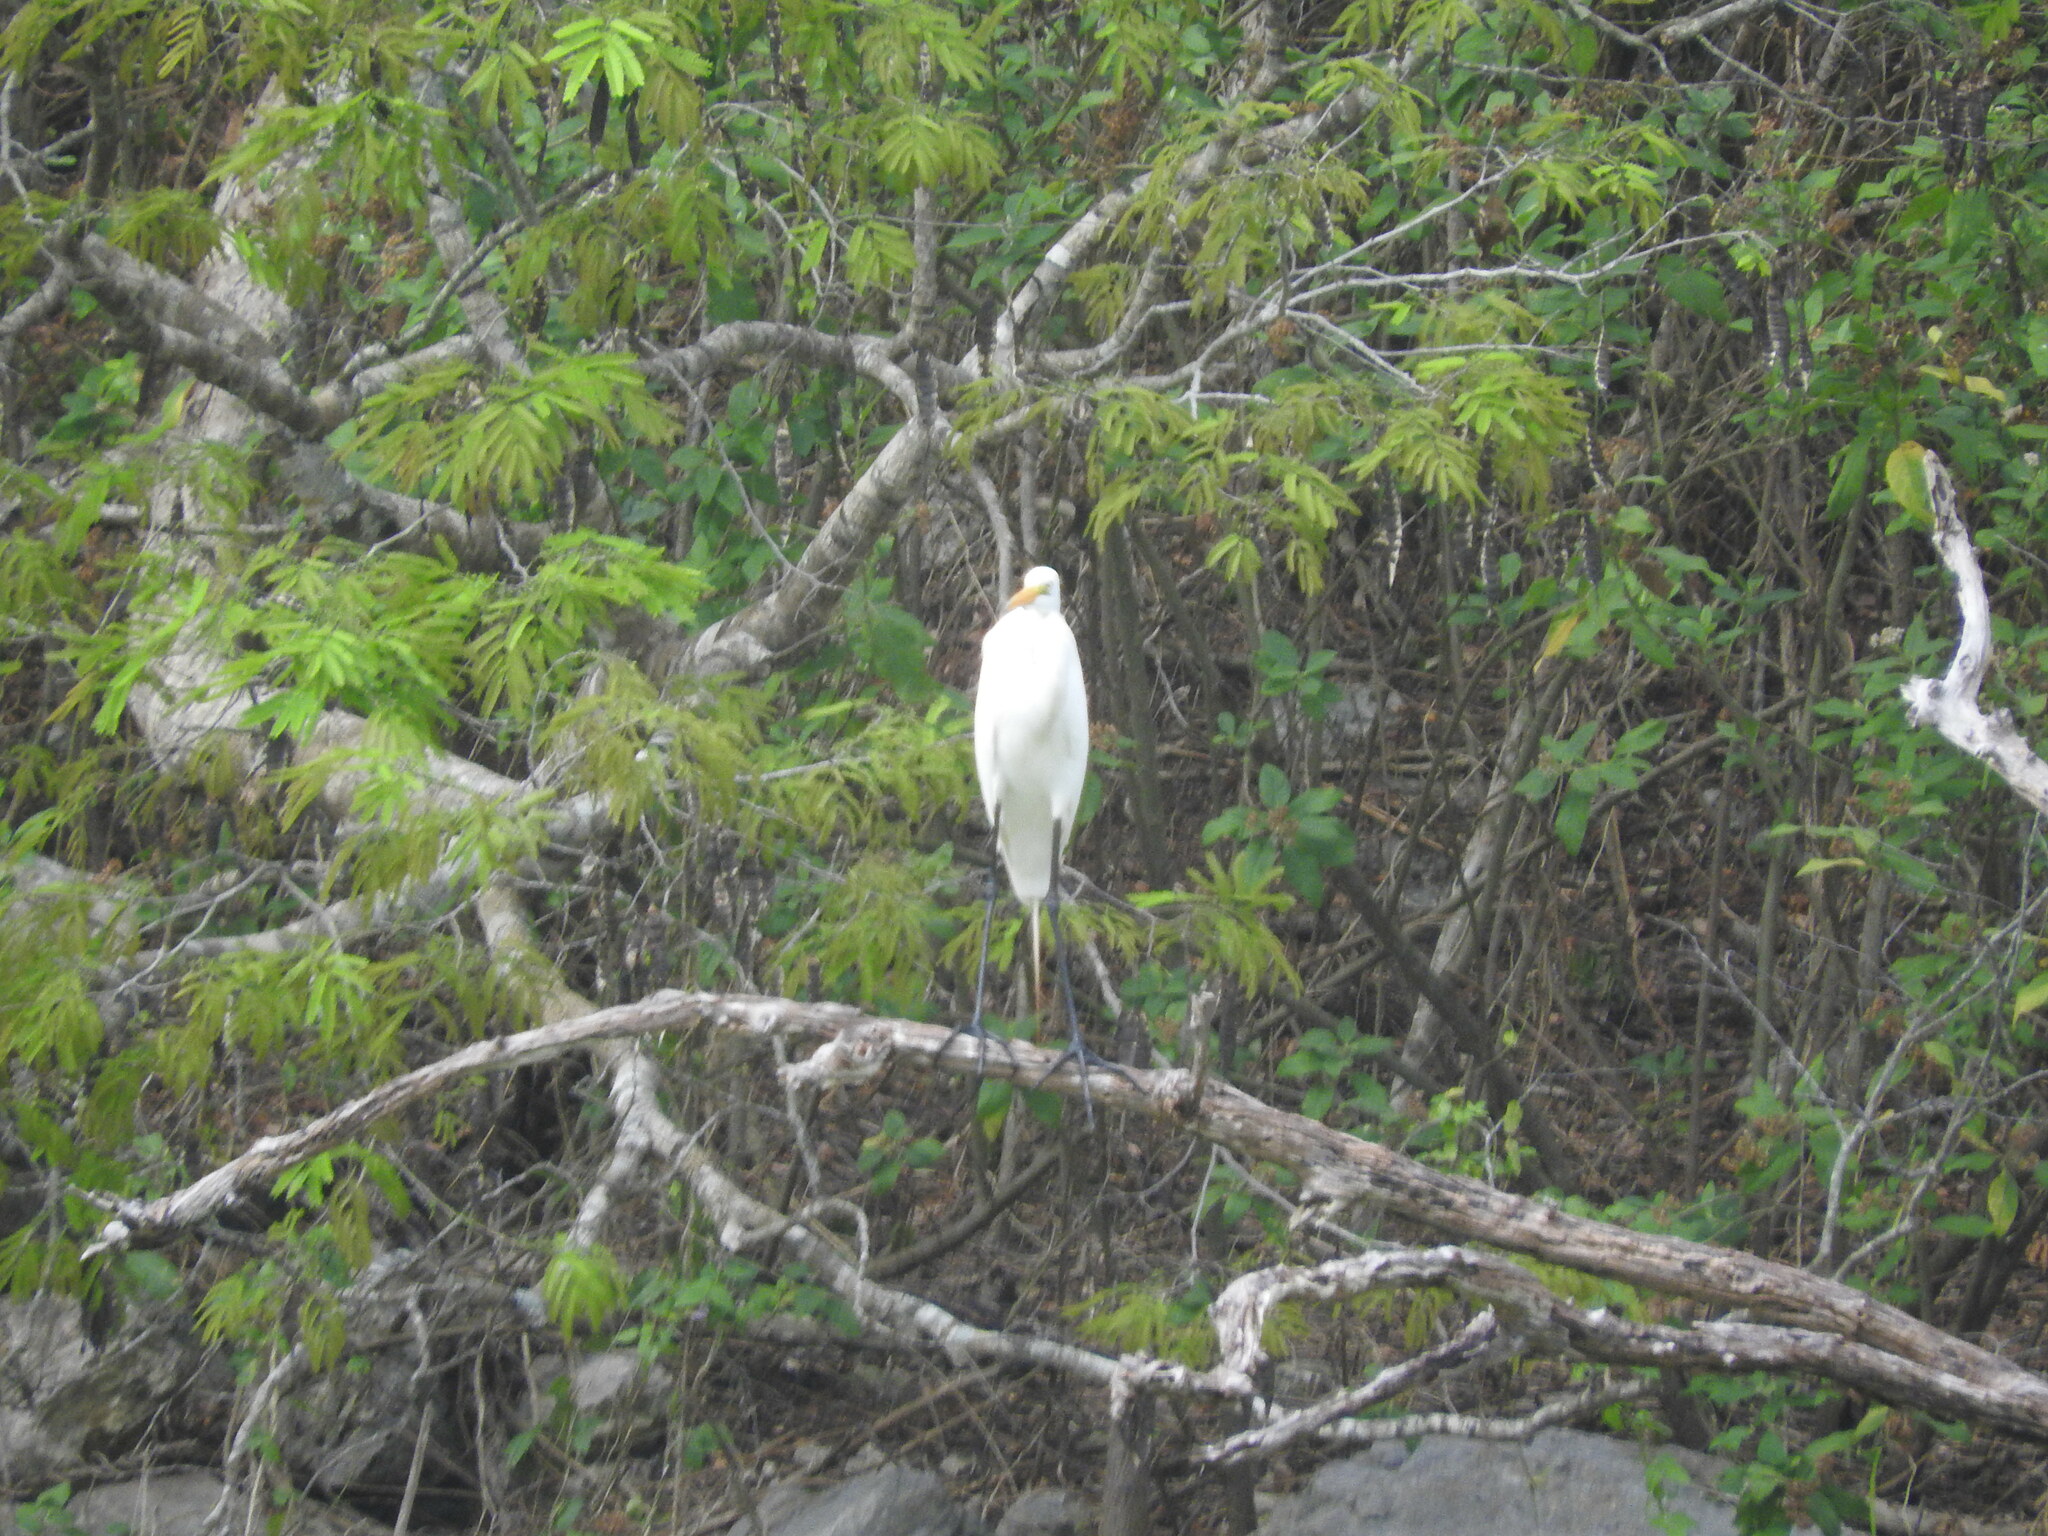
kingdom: Animalia
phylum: Chordata
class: Aves
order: Pelecaniformes
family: Ardeidae
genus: Ardea
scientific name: Ardea alba
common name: Great egret
